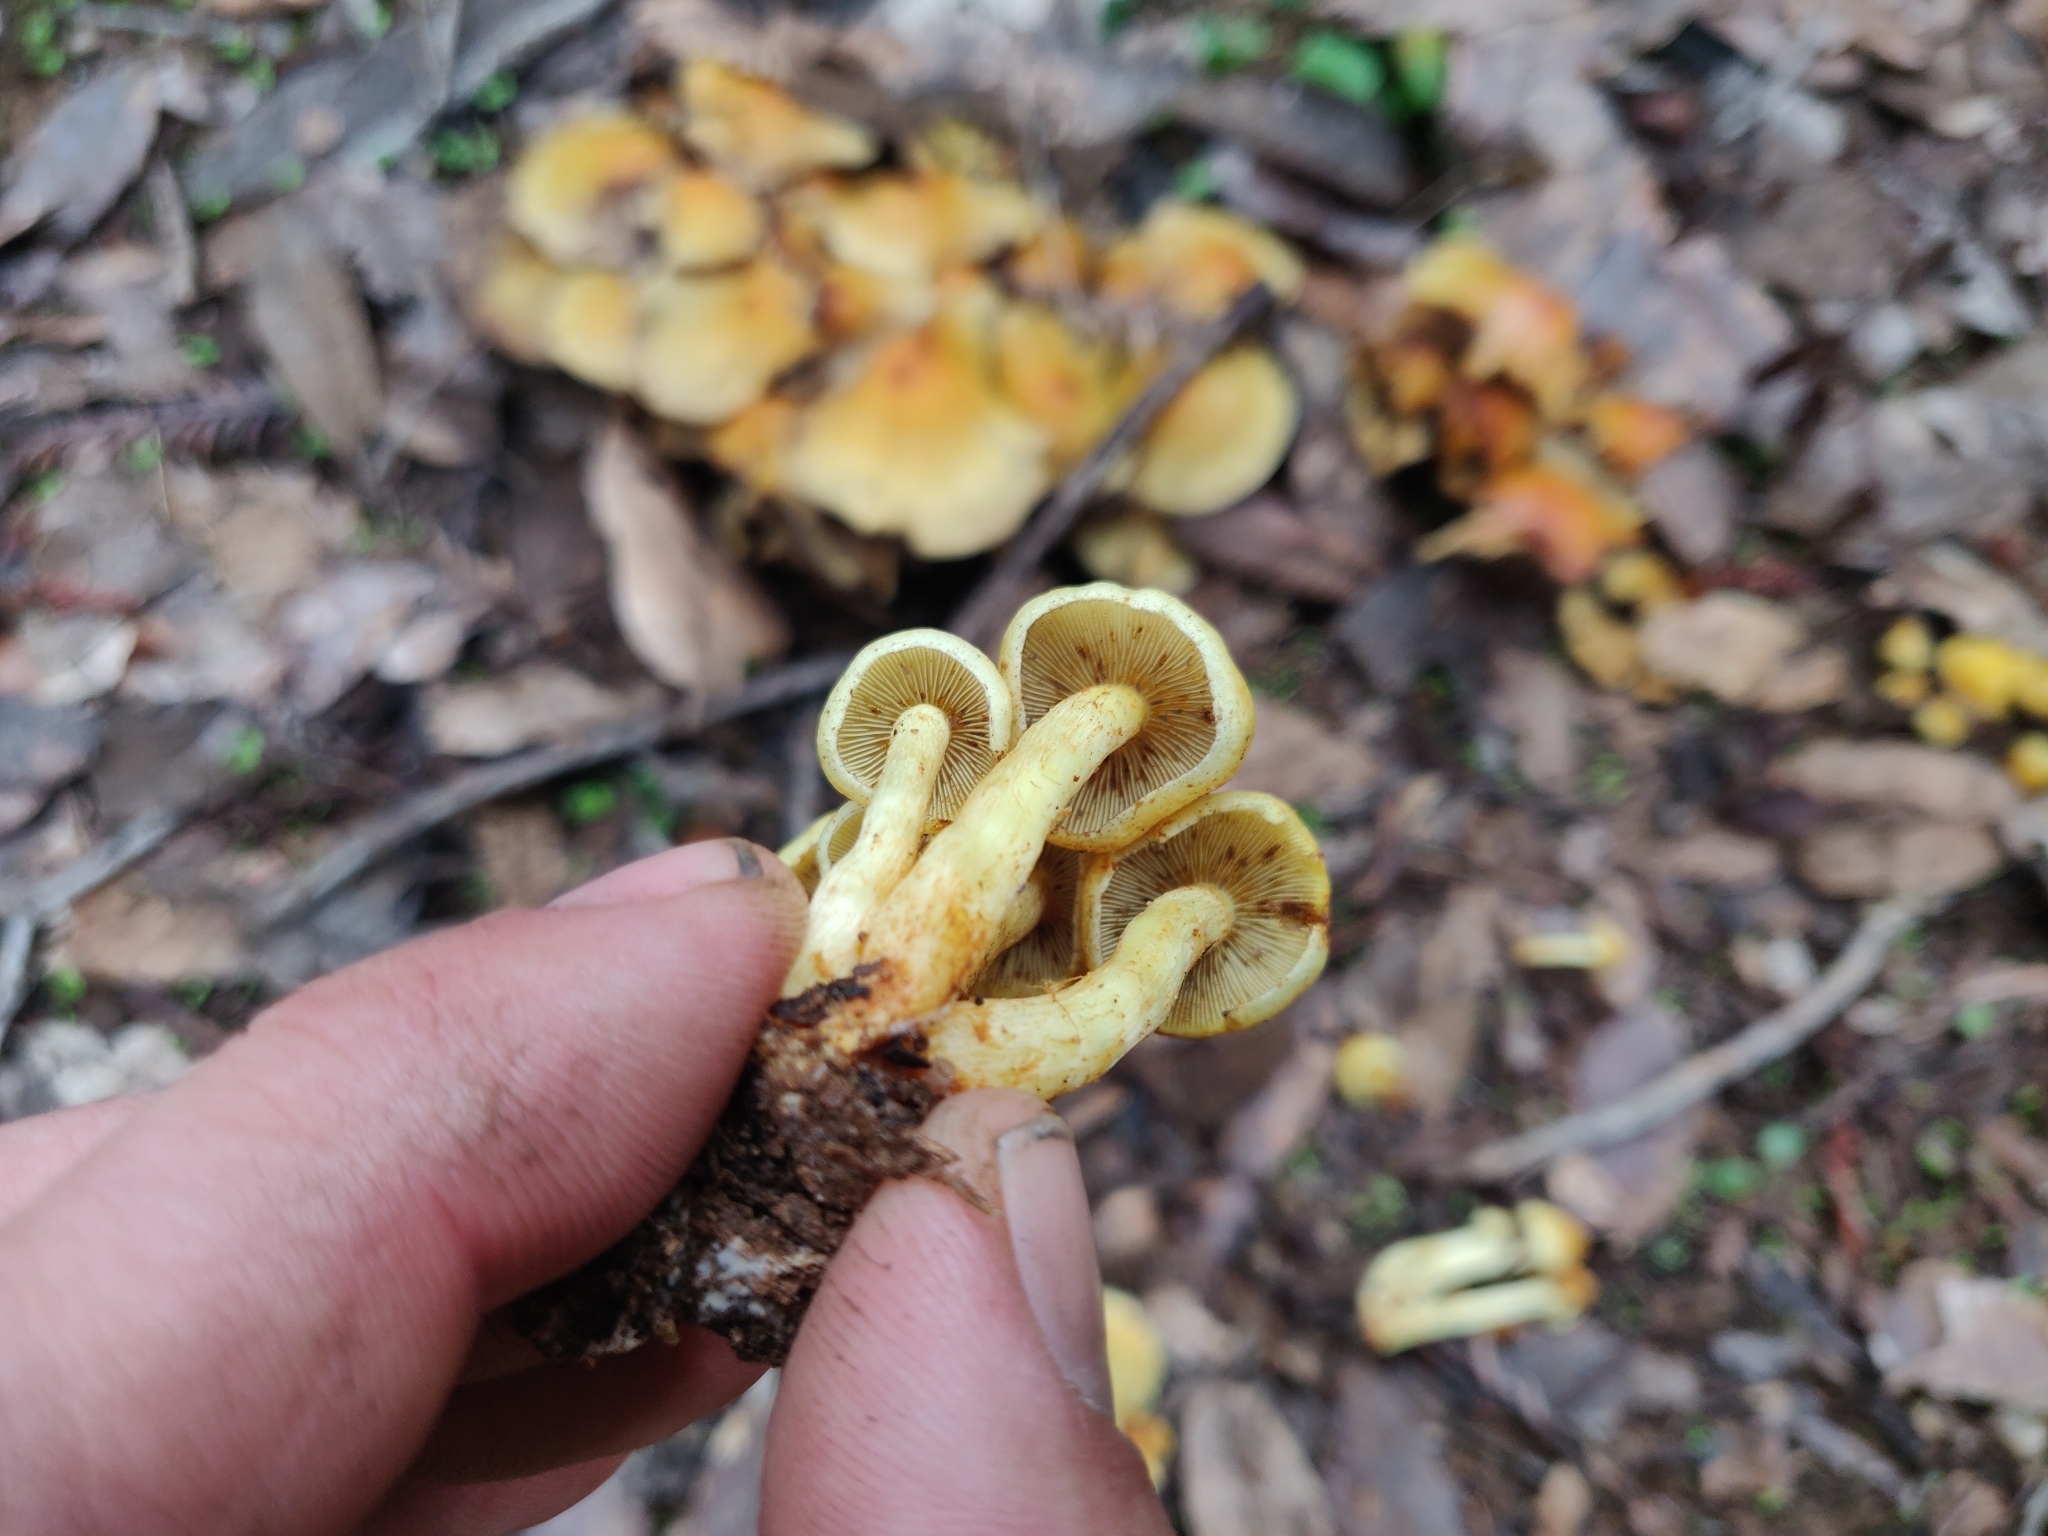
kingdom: Fungi
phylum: Basidiomycota
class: Agaricomycetes
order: Agaricales
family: Strophariaceae
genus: Hypholoma
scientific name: Hypholoma fasciculare
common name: Sulphur tuft
